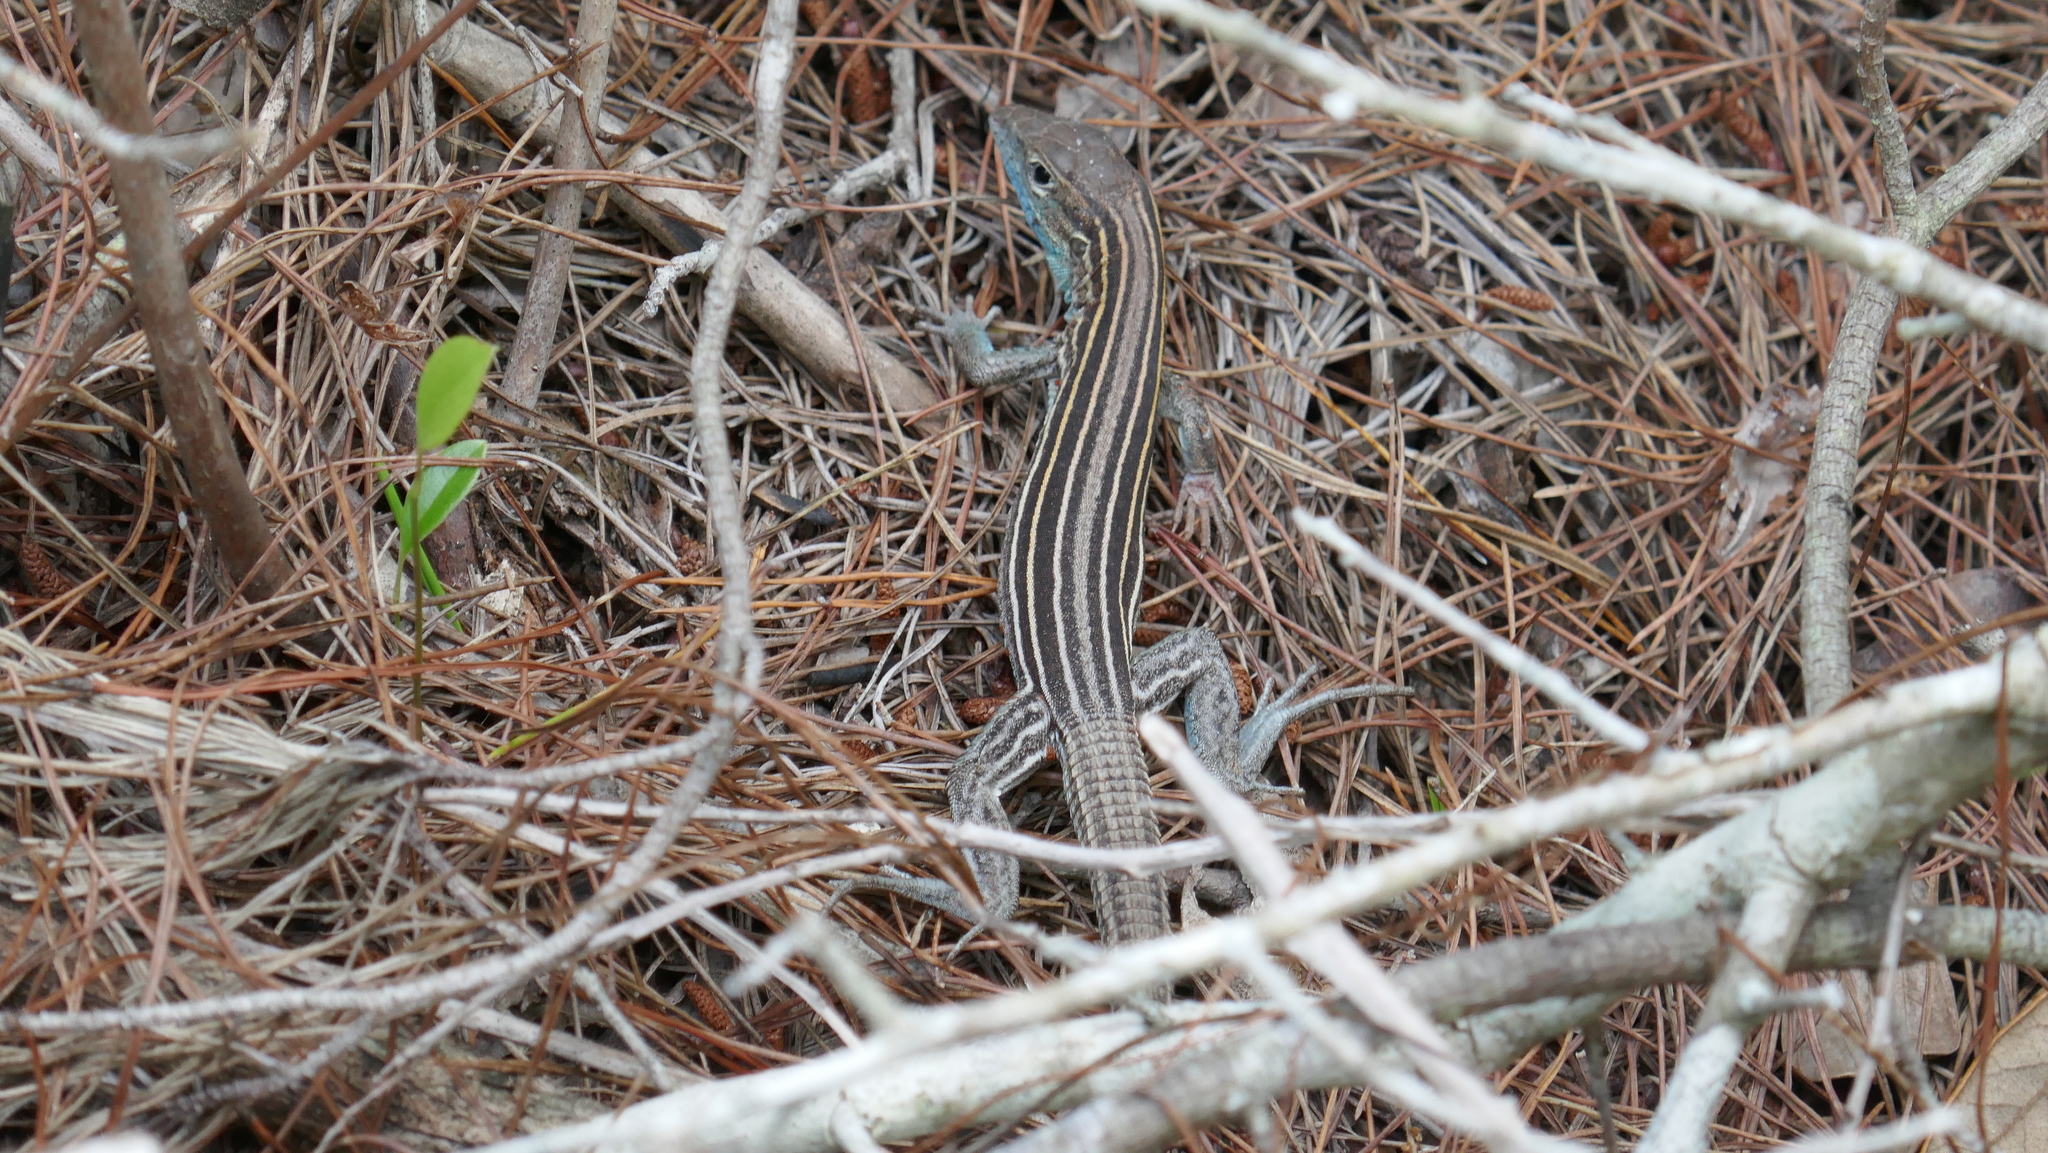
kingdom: Animalia
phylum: Chordata
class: Squamata
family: Teiidae
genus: Aspidoscelis
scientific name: Aspidoscelis sexlineatus
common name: Six-lined racerunner
